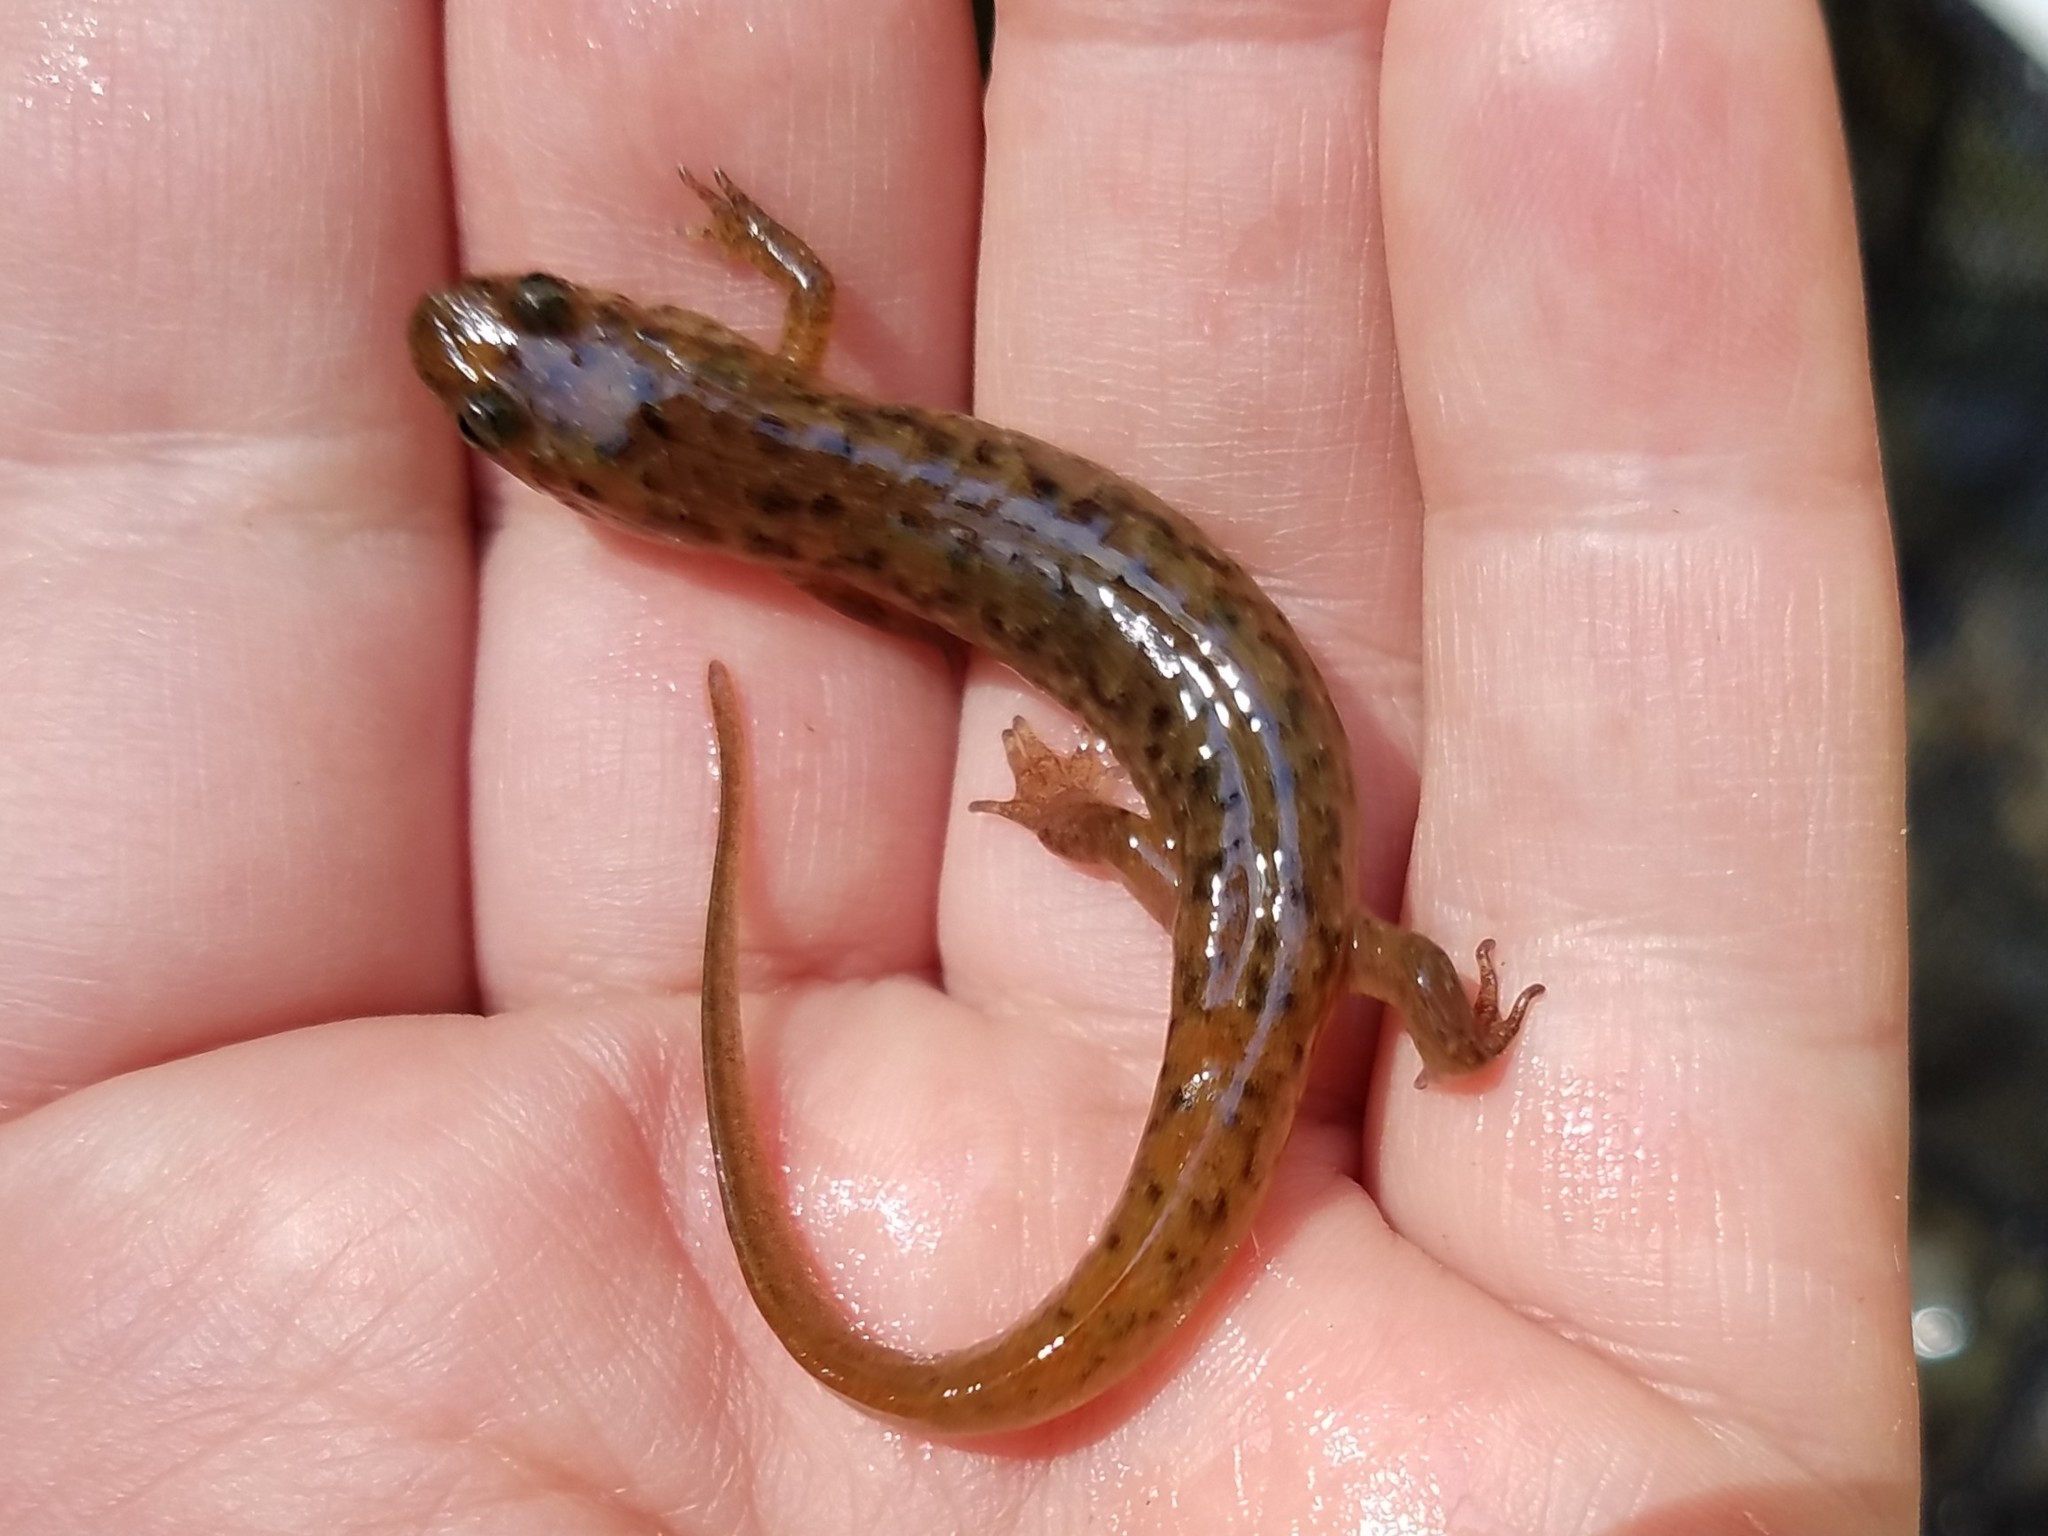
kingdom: Animalia
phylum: Chordata
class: Amphibia
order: Caudata
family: Plethodontidae
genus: Desmognathus
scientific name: Desmognathus monticola
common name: Seal salamander
